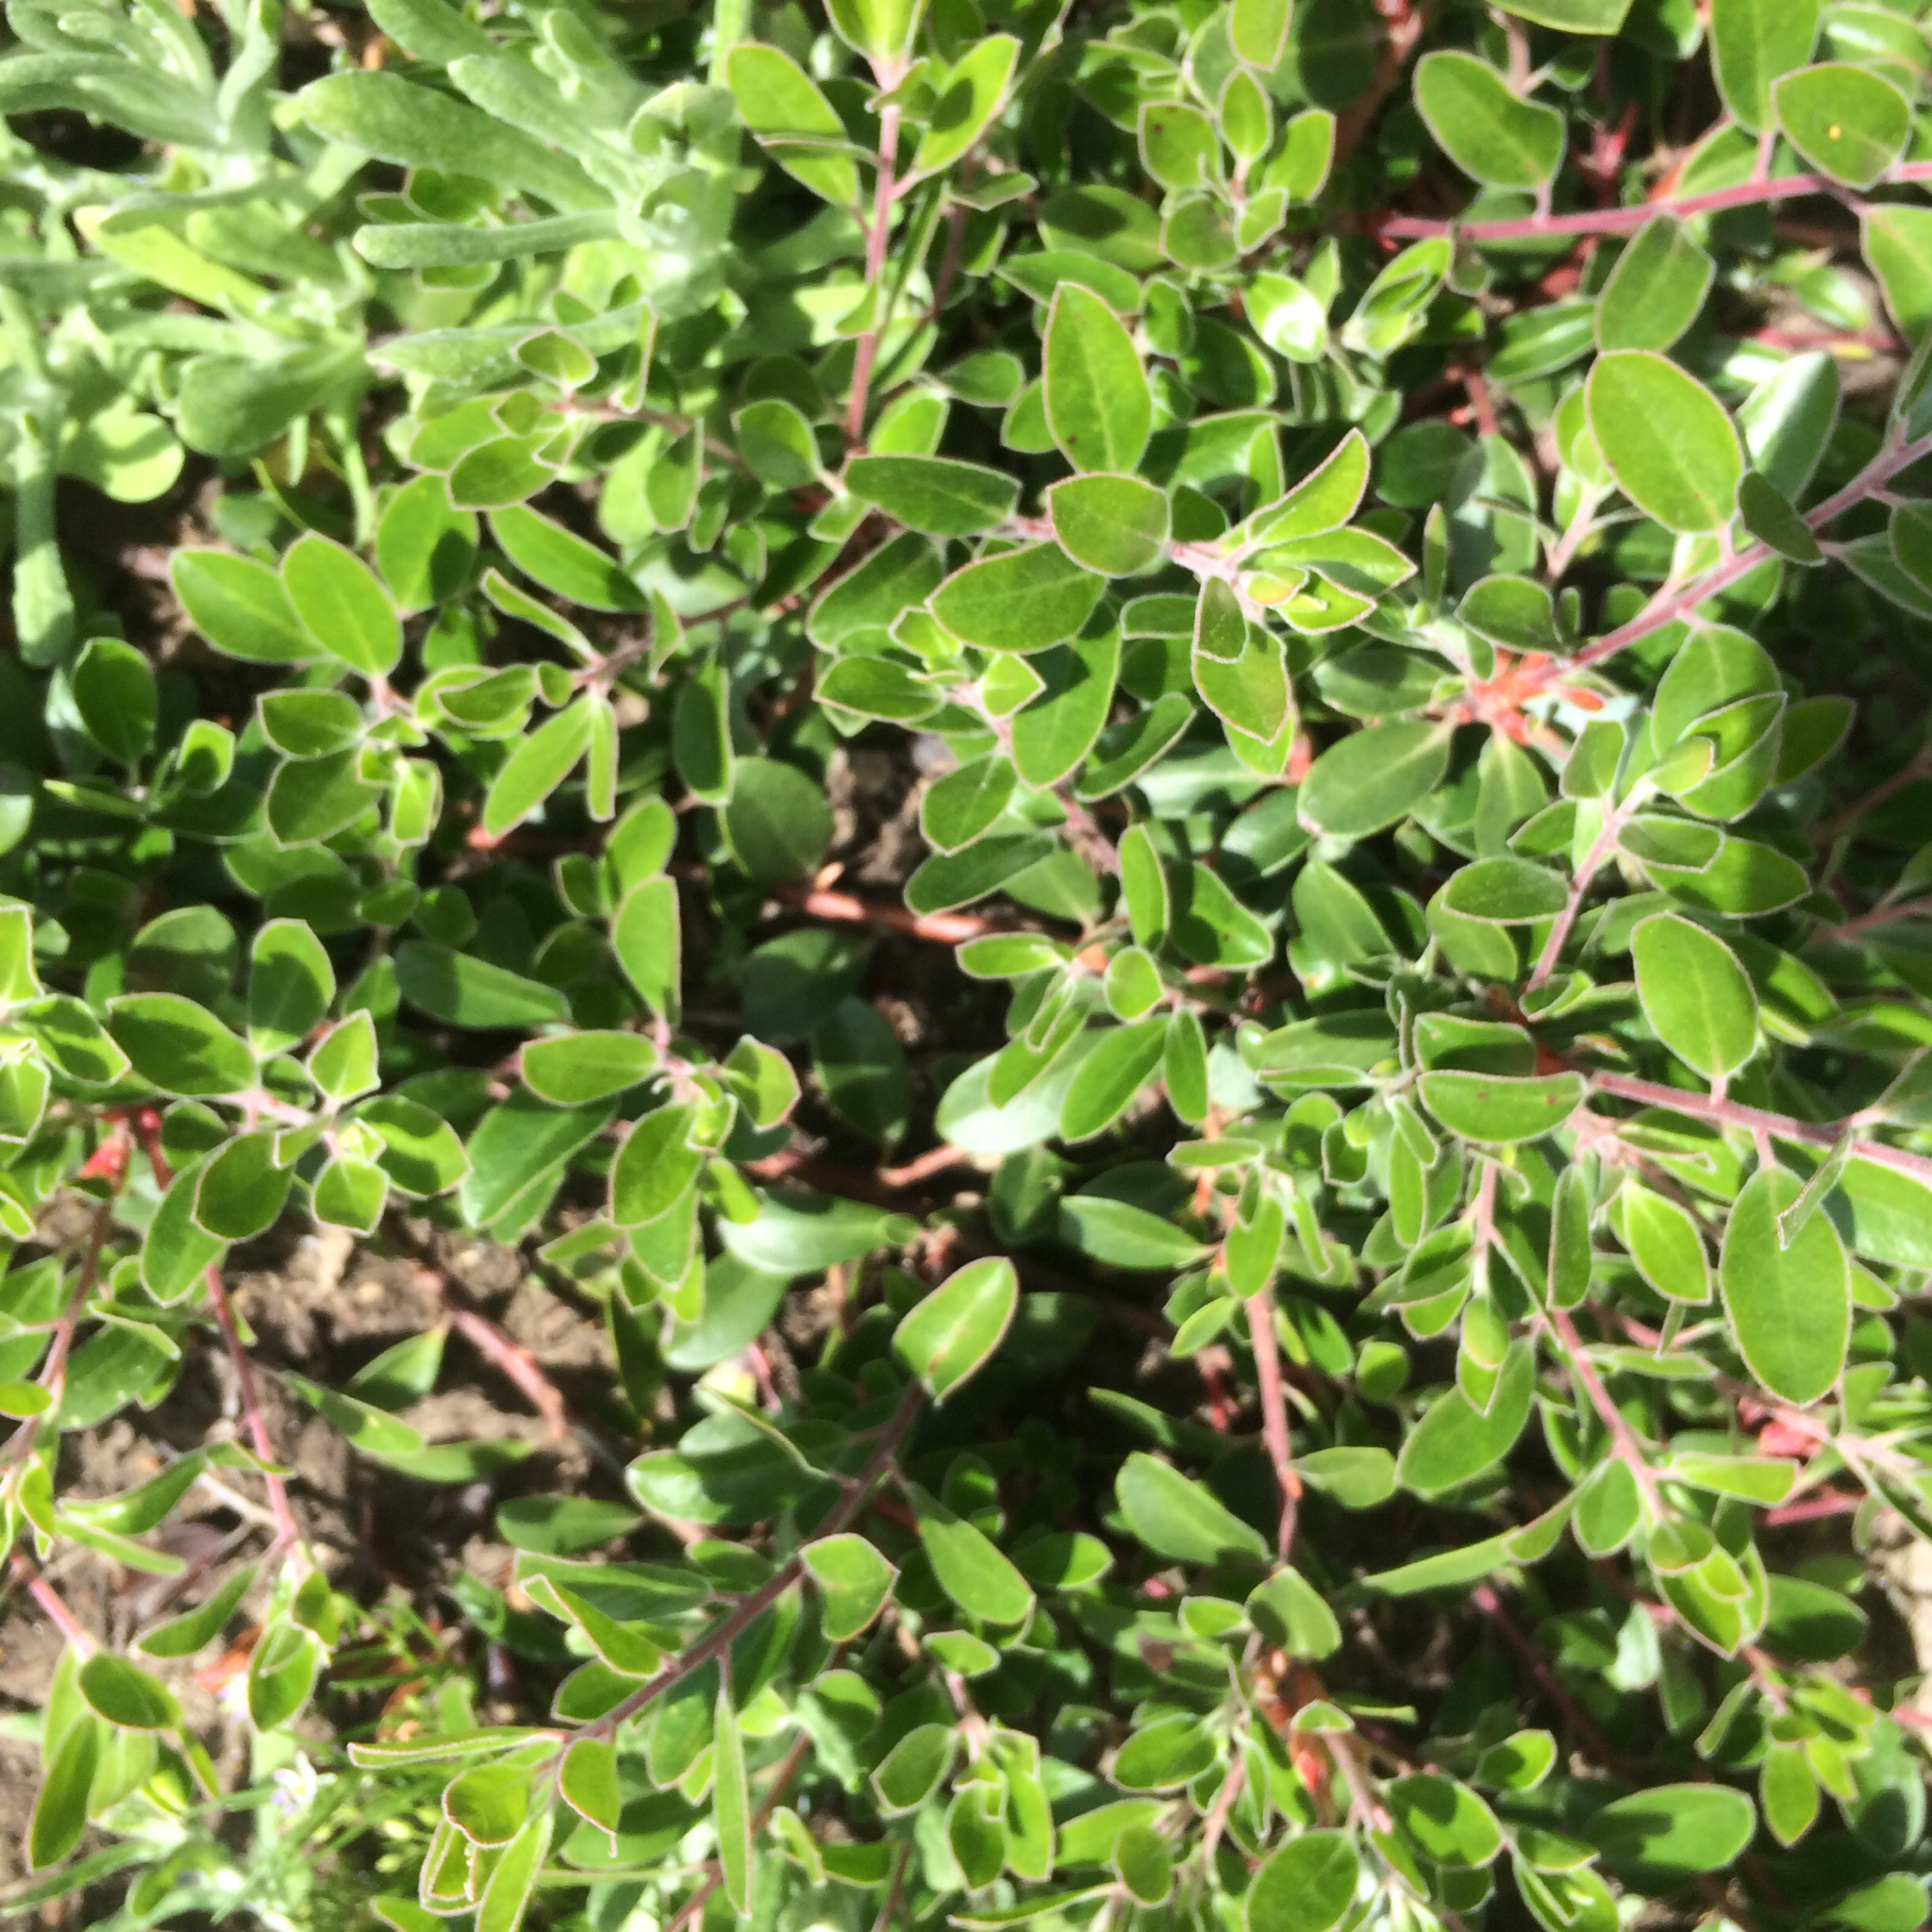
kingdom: Plantae
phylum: Tracheophyta
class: Magnoliopsida
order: Ericales
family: Ericaceae
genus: Arctostaphylos
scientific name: Arctostaphylos franciscana
